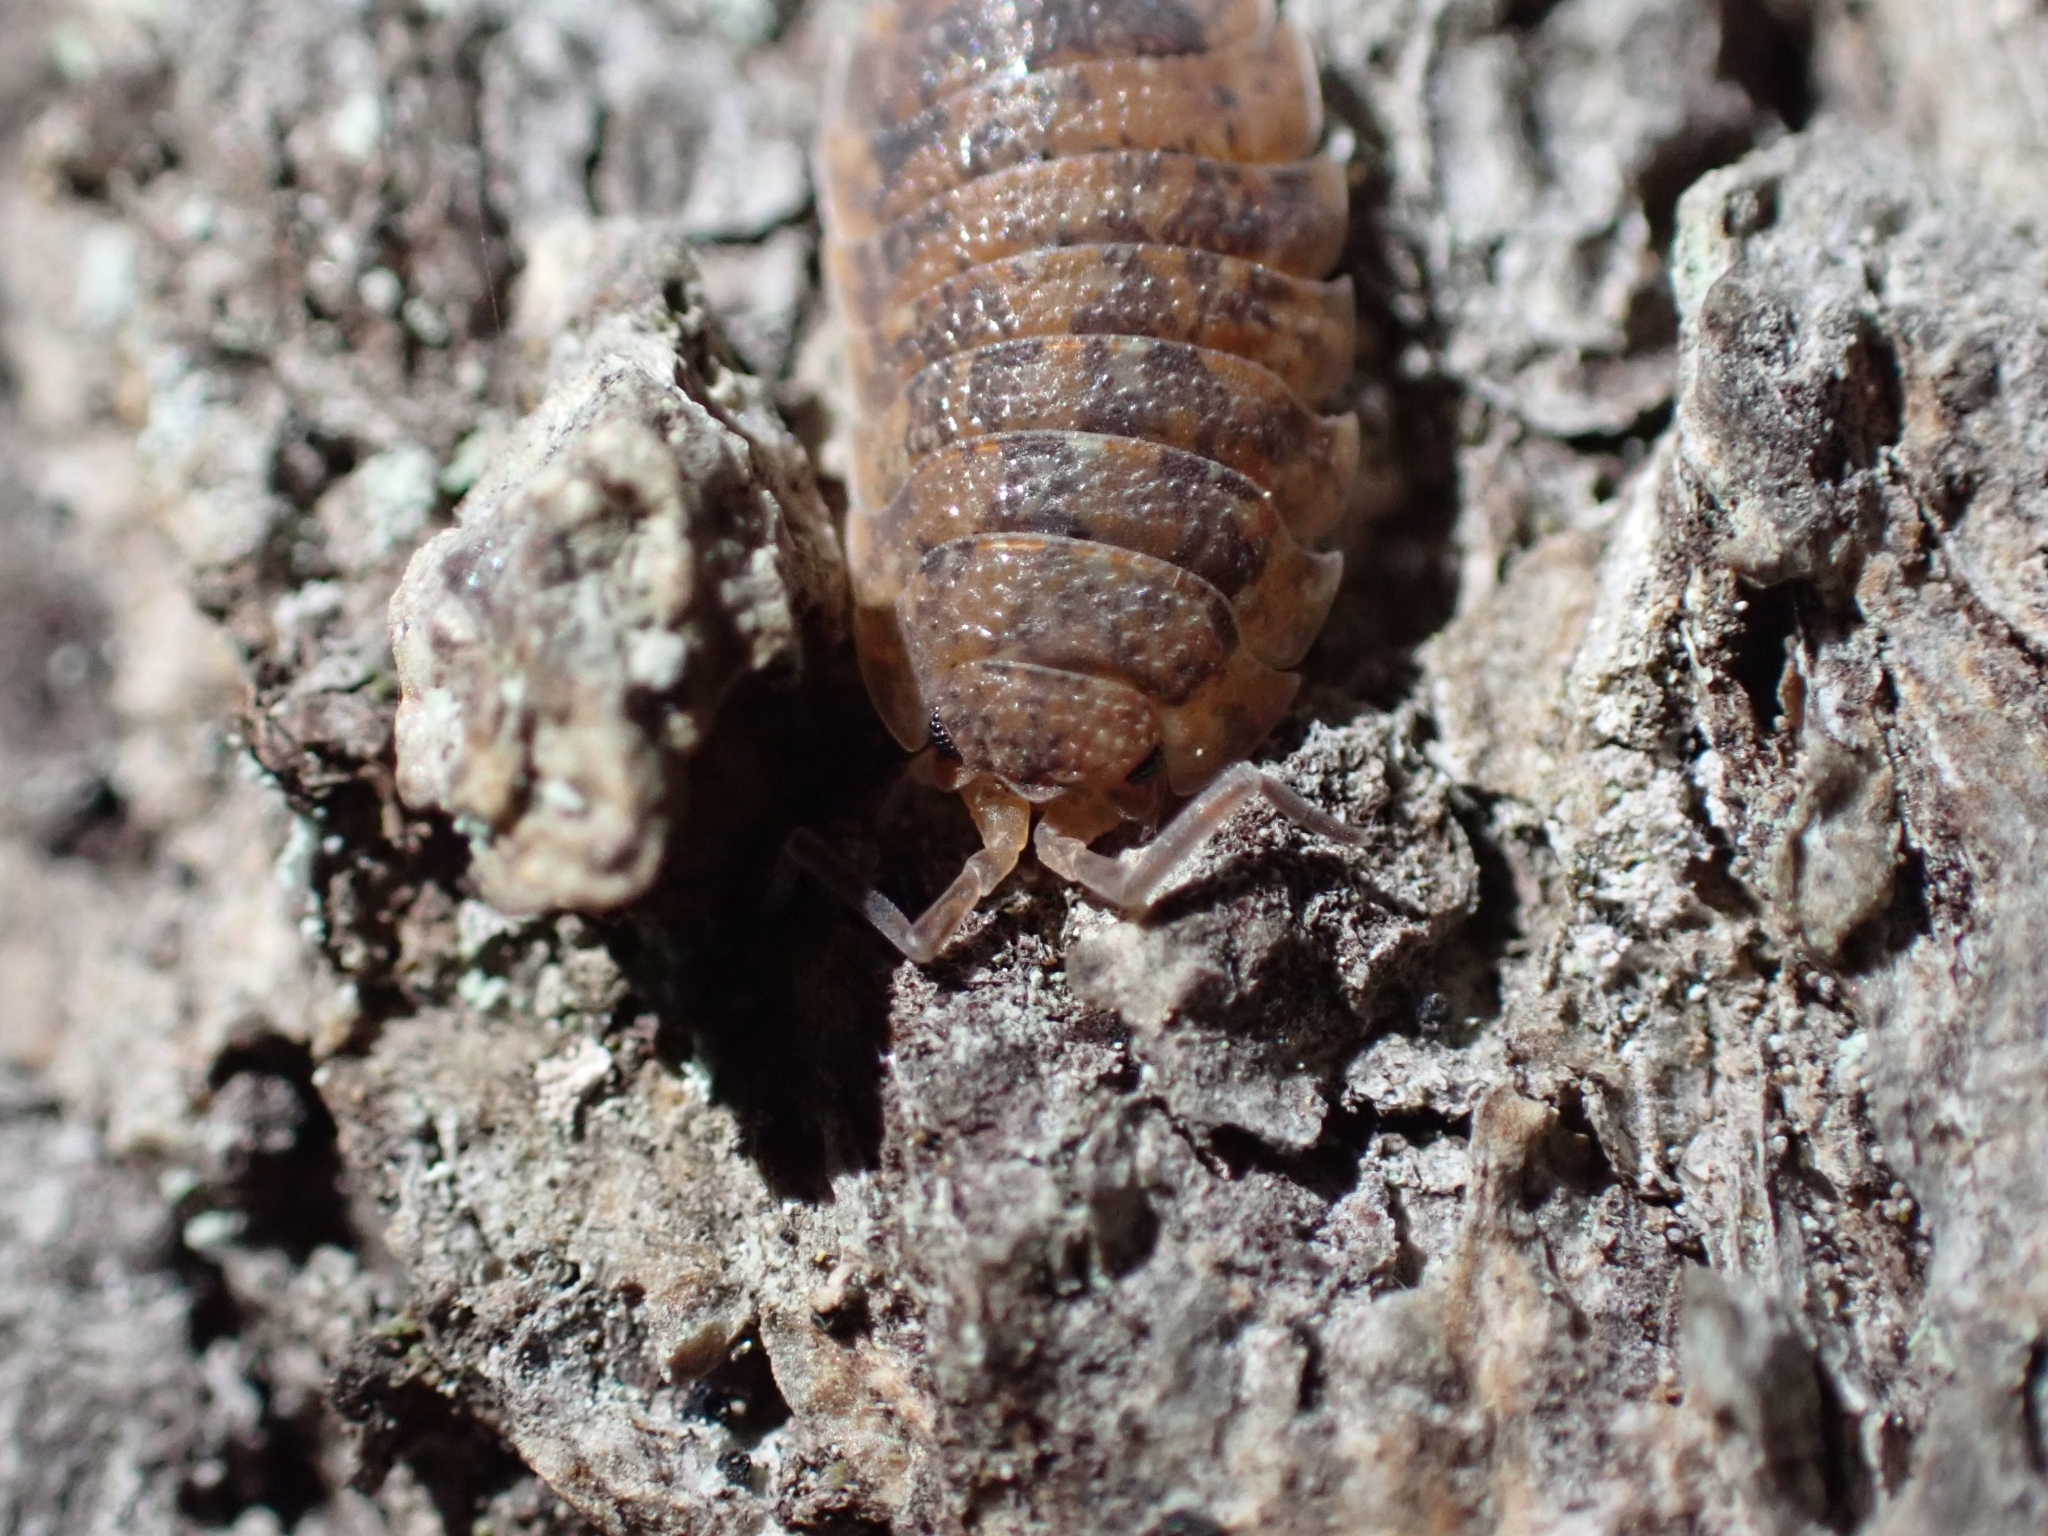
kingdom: Animalia
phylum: Arthropoda
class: Malacostraca
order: Isopoda
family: Porcellionidae
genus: Porcellio
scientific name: Porcellio scaber
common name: Common rough woodlouse
